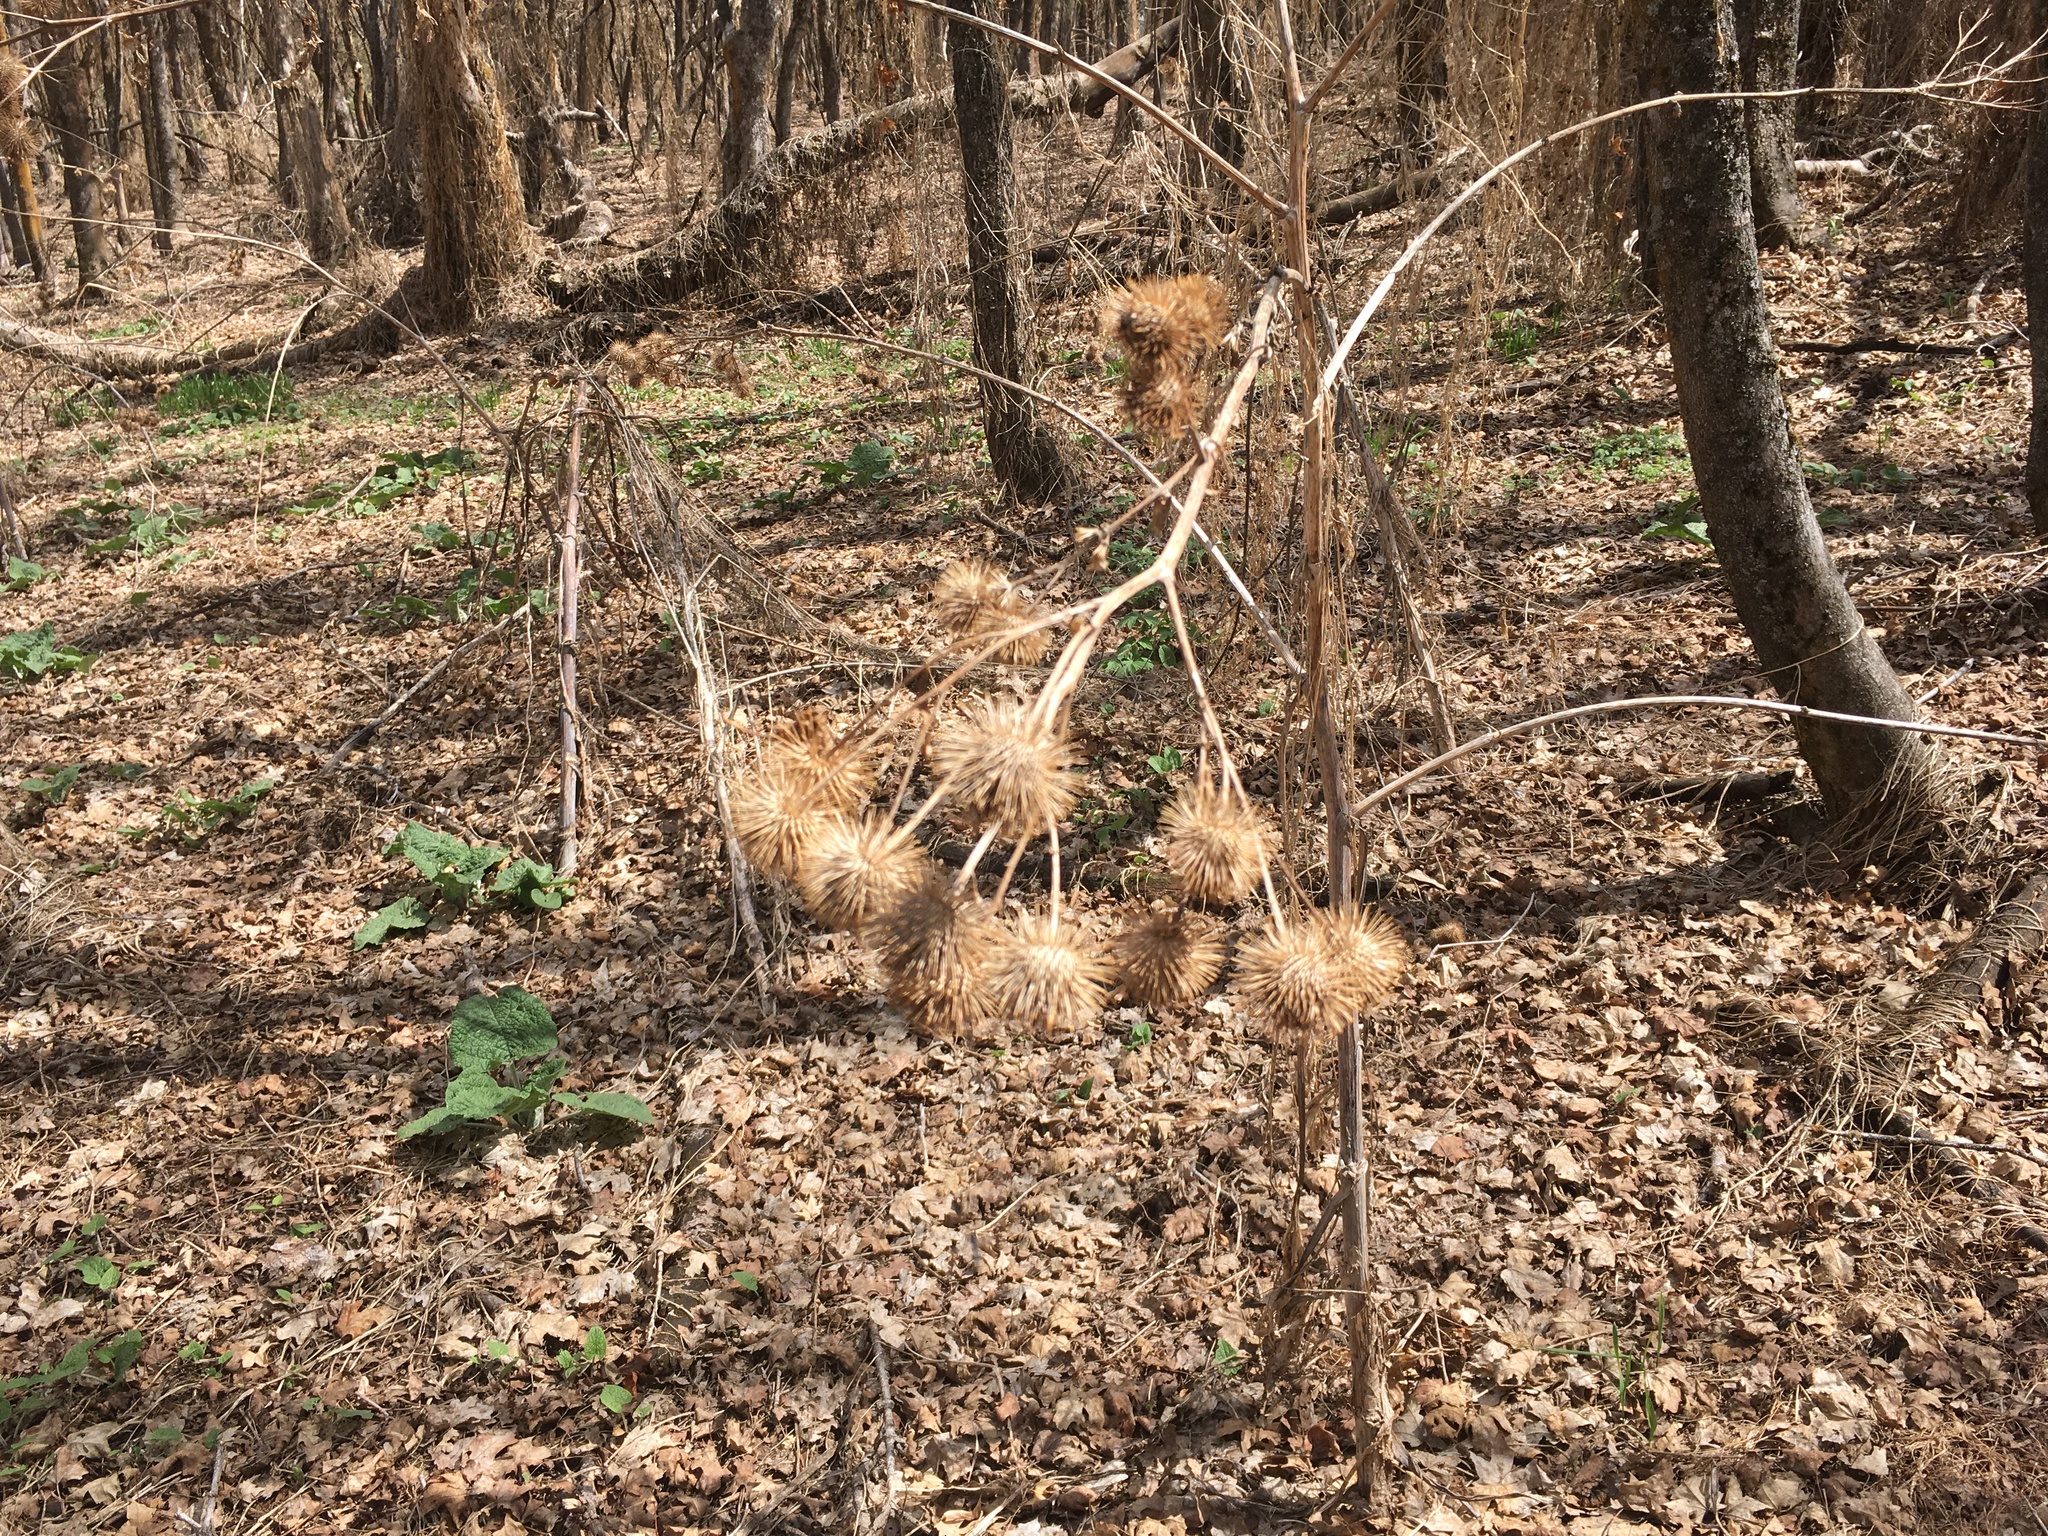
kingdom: Plantae
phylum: Tracheophyta
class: Magnoliopsida
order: Asterales
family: Asteraceae
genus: Arctium
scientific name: Arctium lappa
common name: Greater burdock
